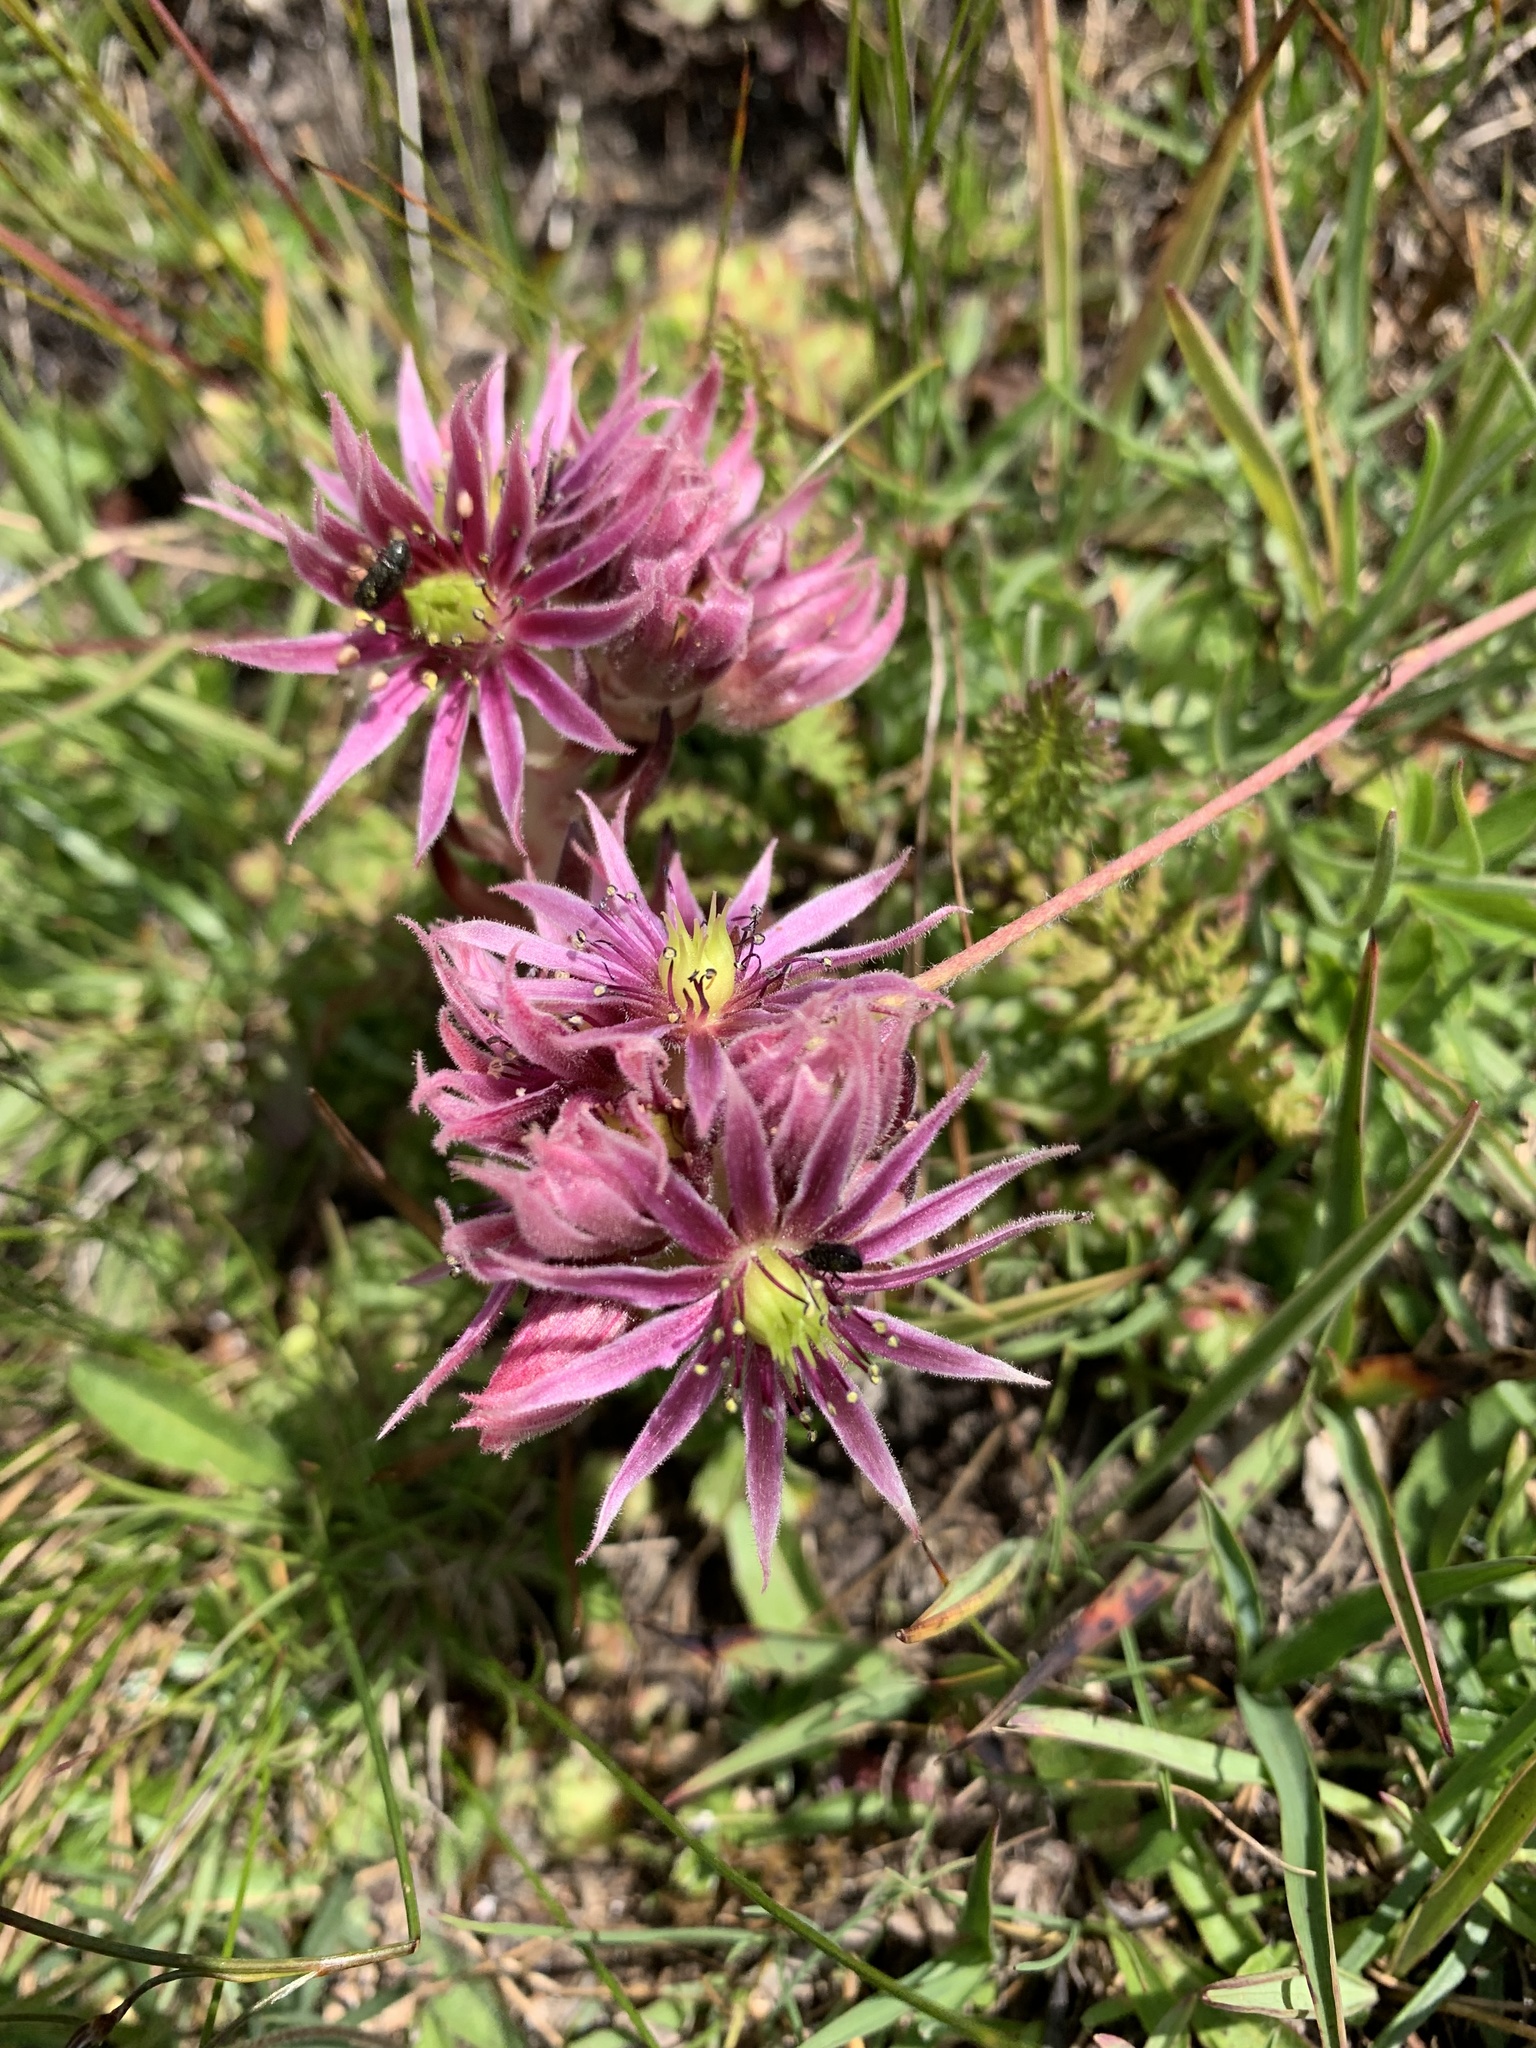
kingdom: Plantae
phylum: Tracheophyta
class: Magnoliopsida
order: Saxifragales
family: Crassulaceae
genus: Sempervivum
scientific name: Sempervivum montanum
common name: Mountain house-leek
